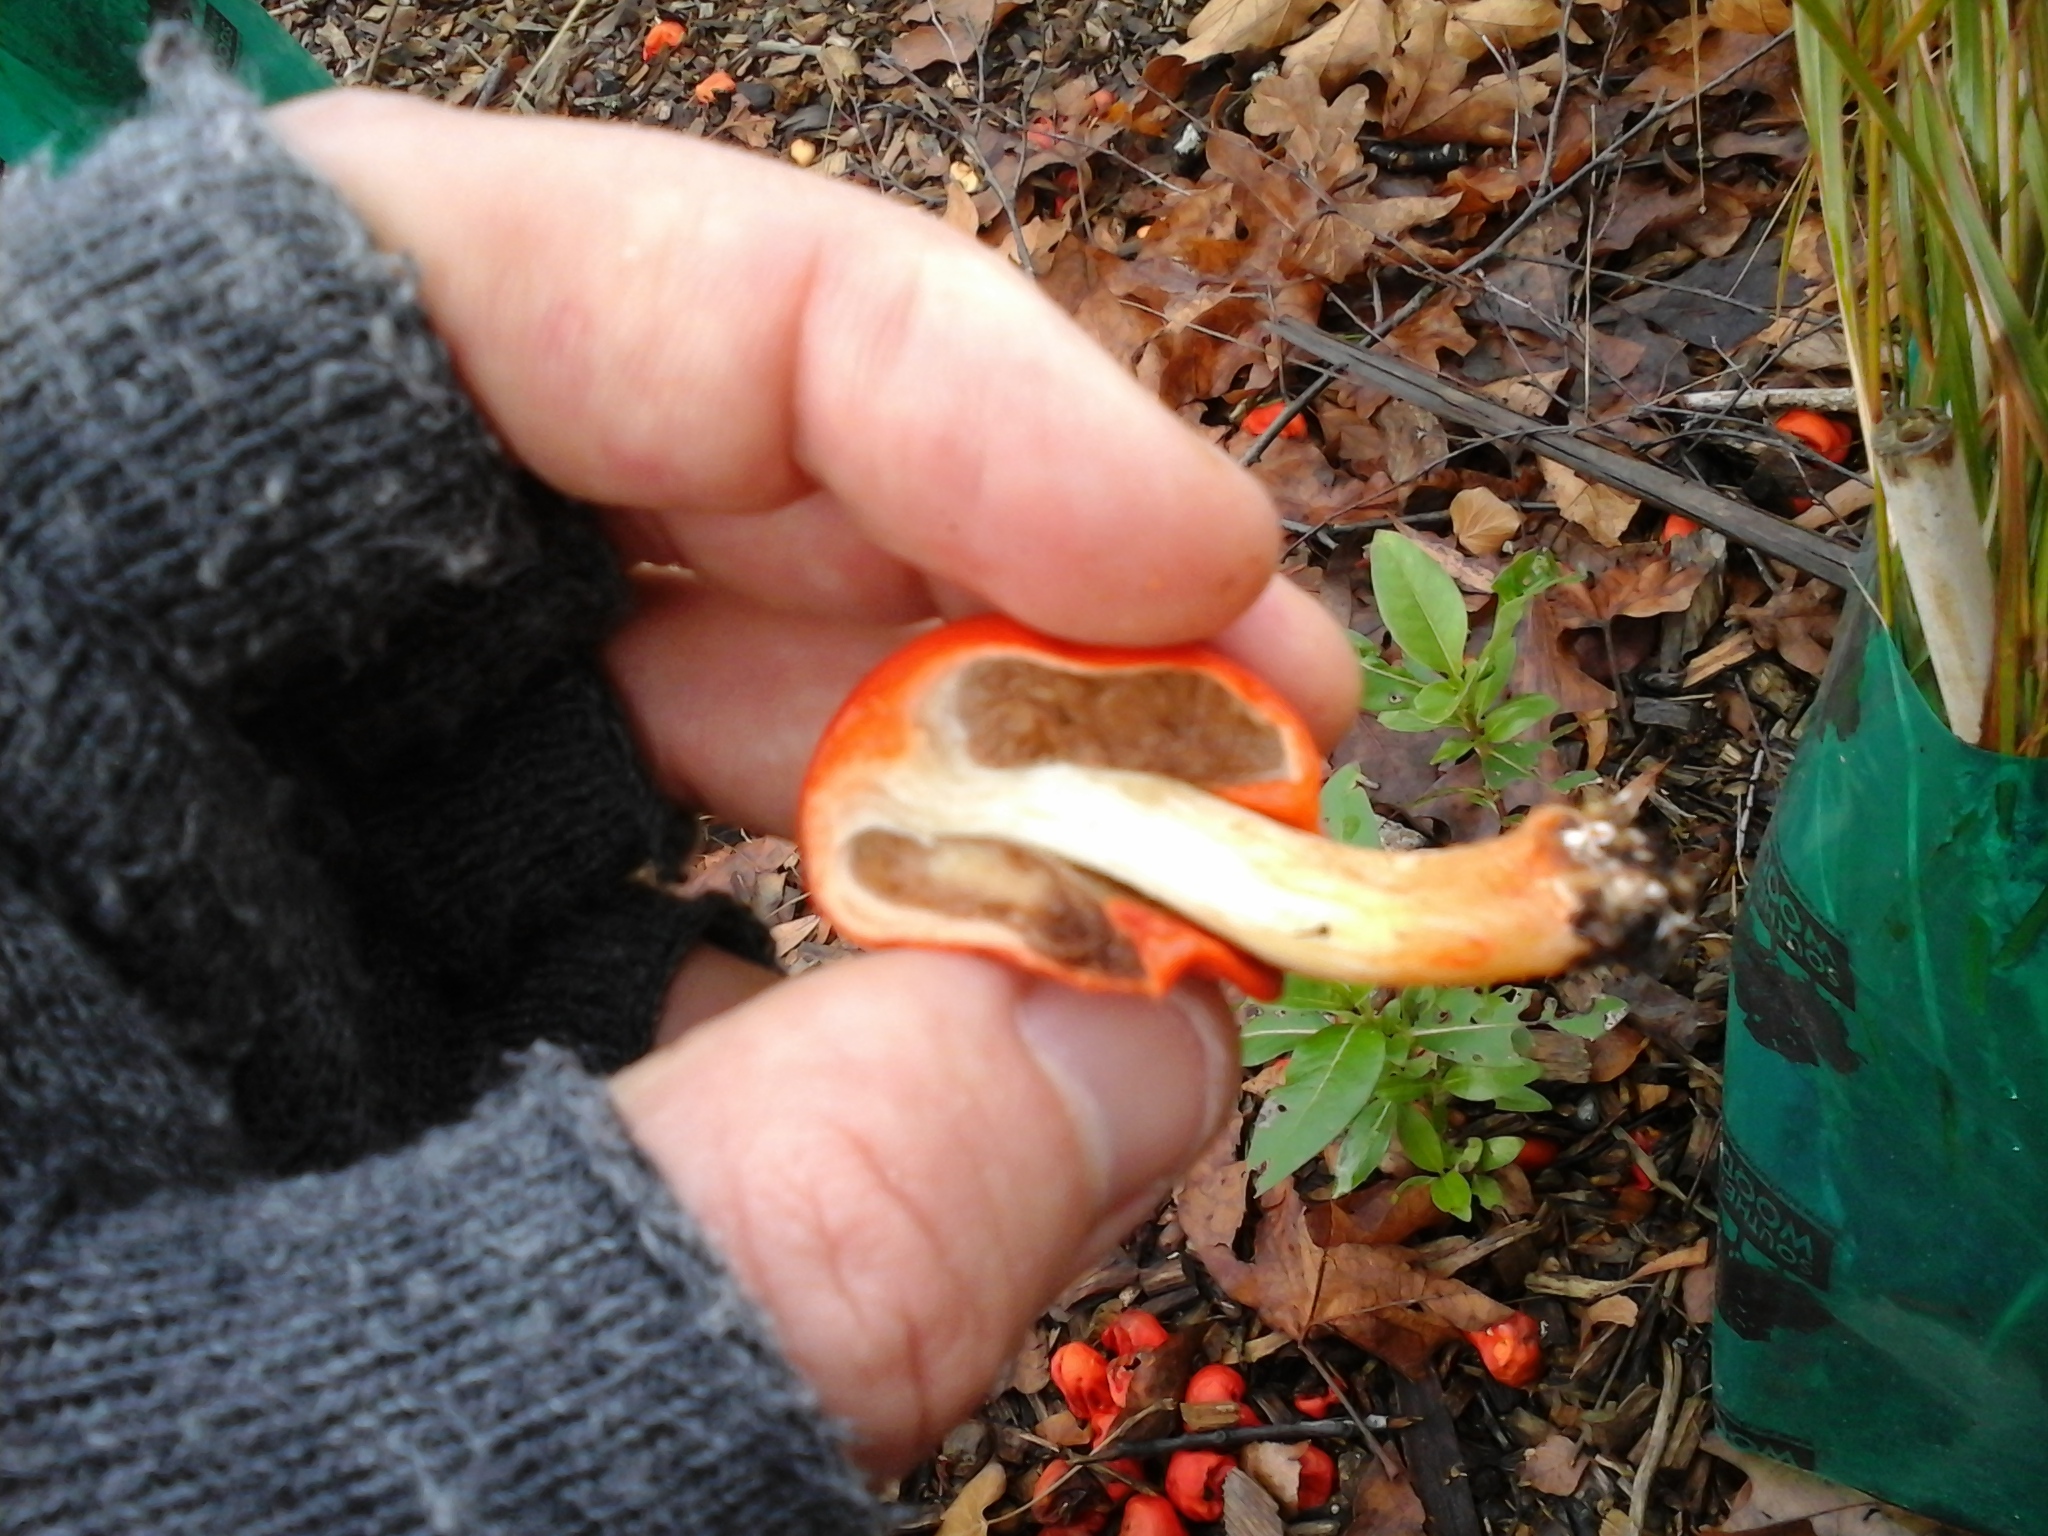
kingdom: Fungi
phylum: Basidiomycota
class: Agaricomycetes
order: Agaricales
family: Strophariaceae
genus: Leratiomyces
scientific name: Leratiomyces erythrocephalus
